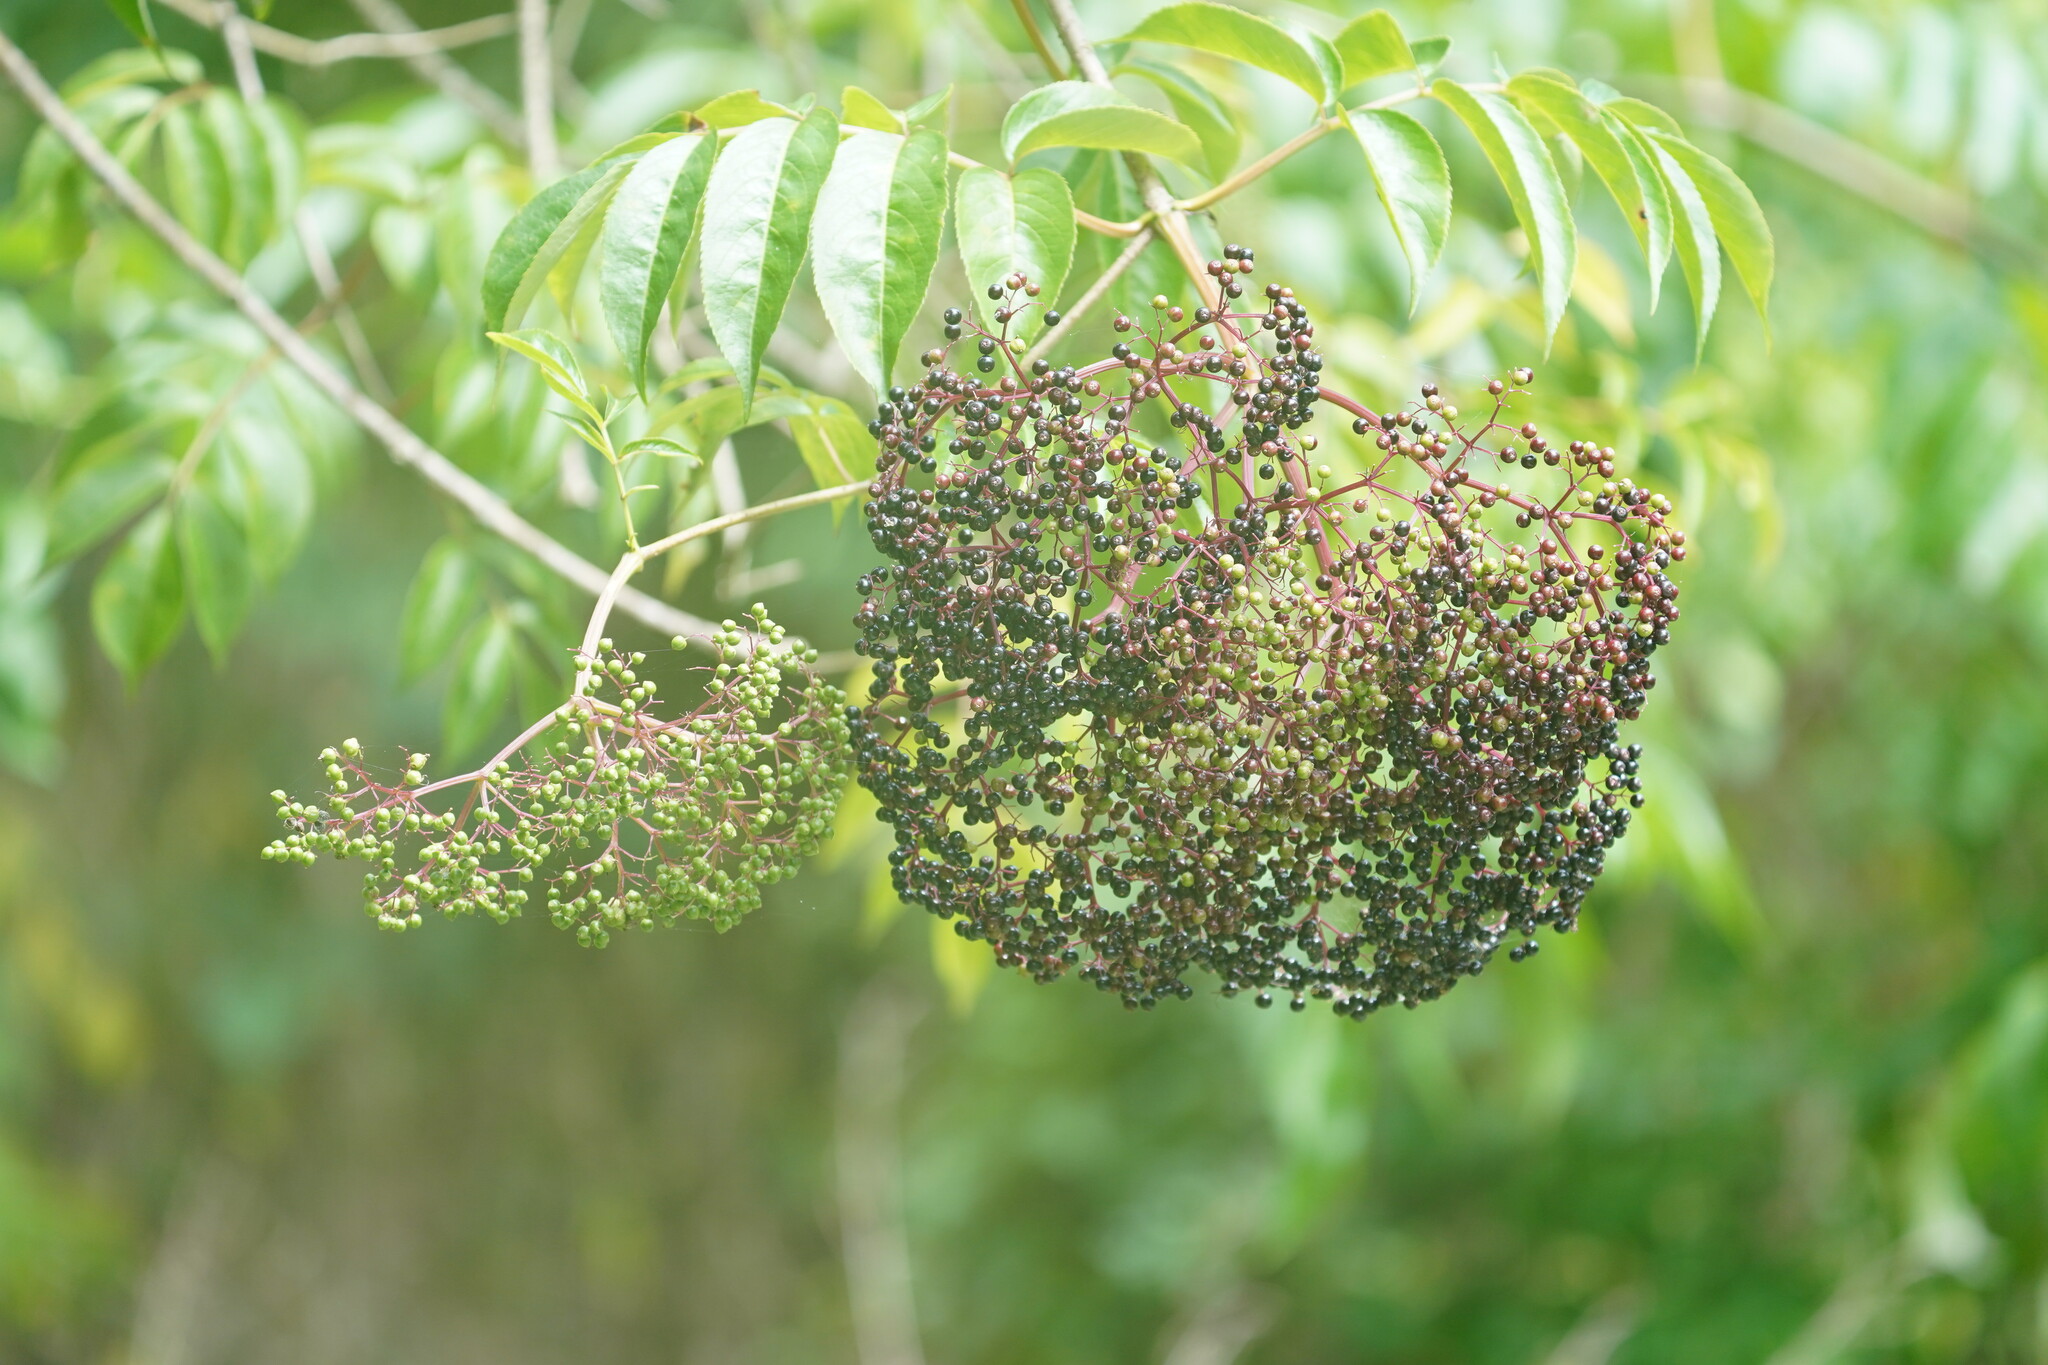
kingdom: Plantae
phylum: Tracheophyta
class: Magnoliopsida
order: Dipsacales
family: Viburnaceae
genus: Sambucus
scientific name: Sambucus canadensis
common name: American elder
